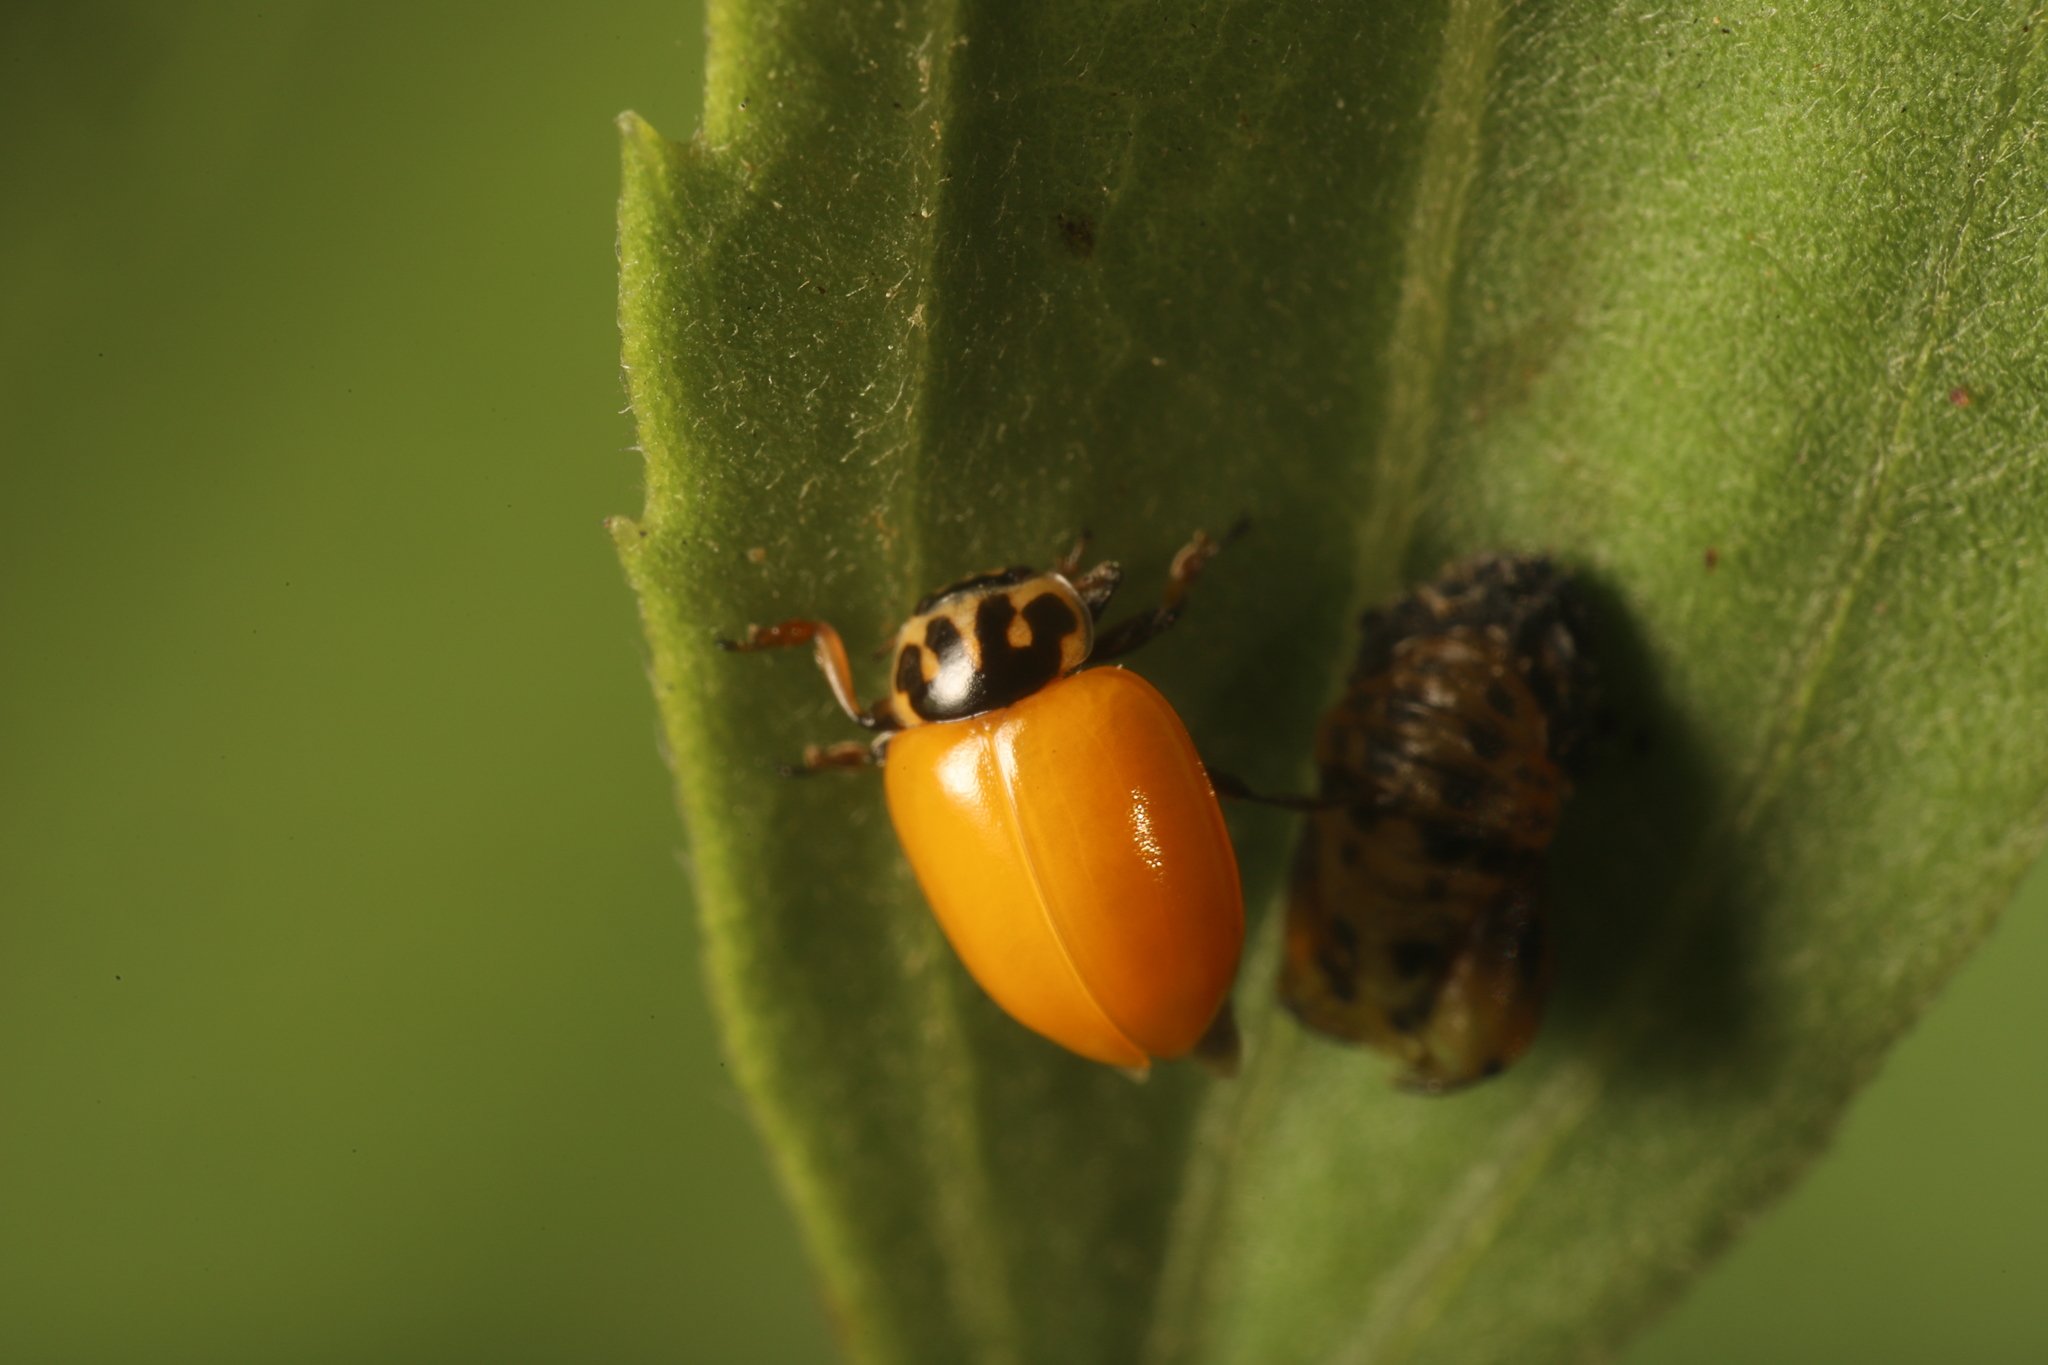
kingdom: Animalia
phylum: Arthropoda
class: Insecta
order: Coleoptera
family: Coccinellidae
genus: Hippodamia
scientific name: Hippodamia variegata
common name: Ladybird beetle
